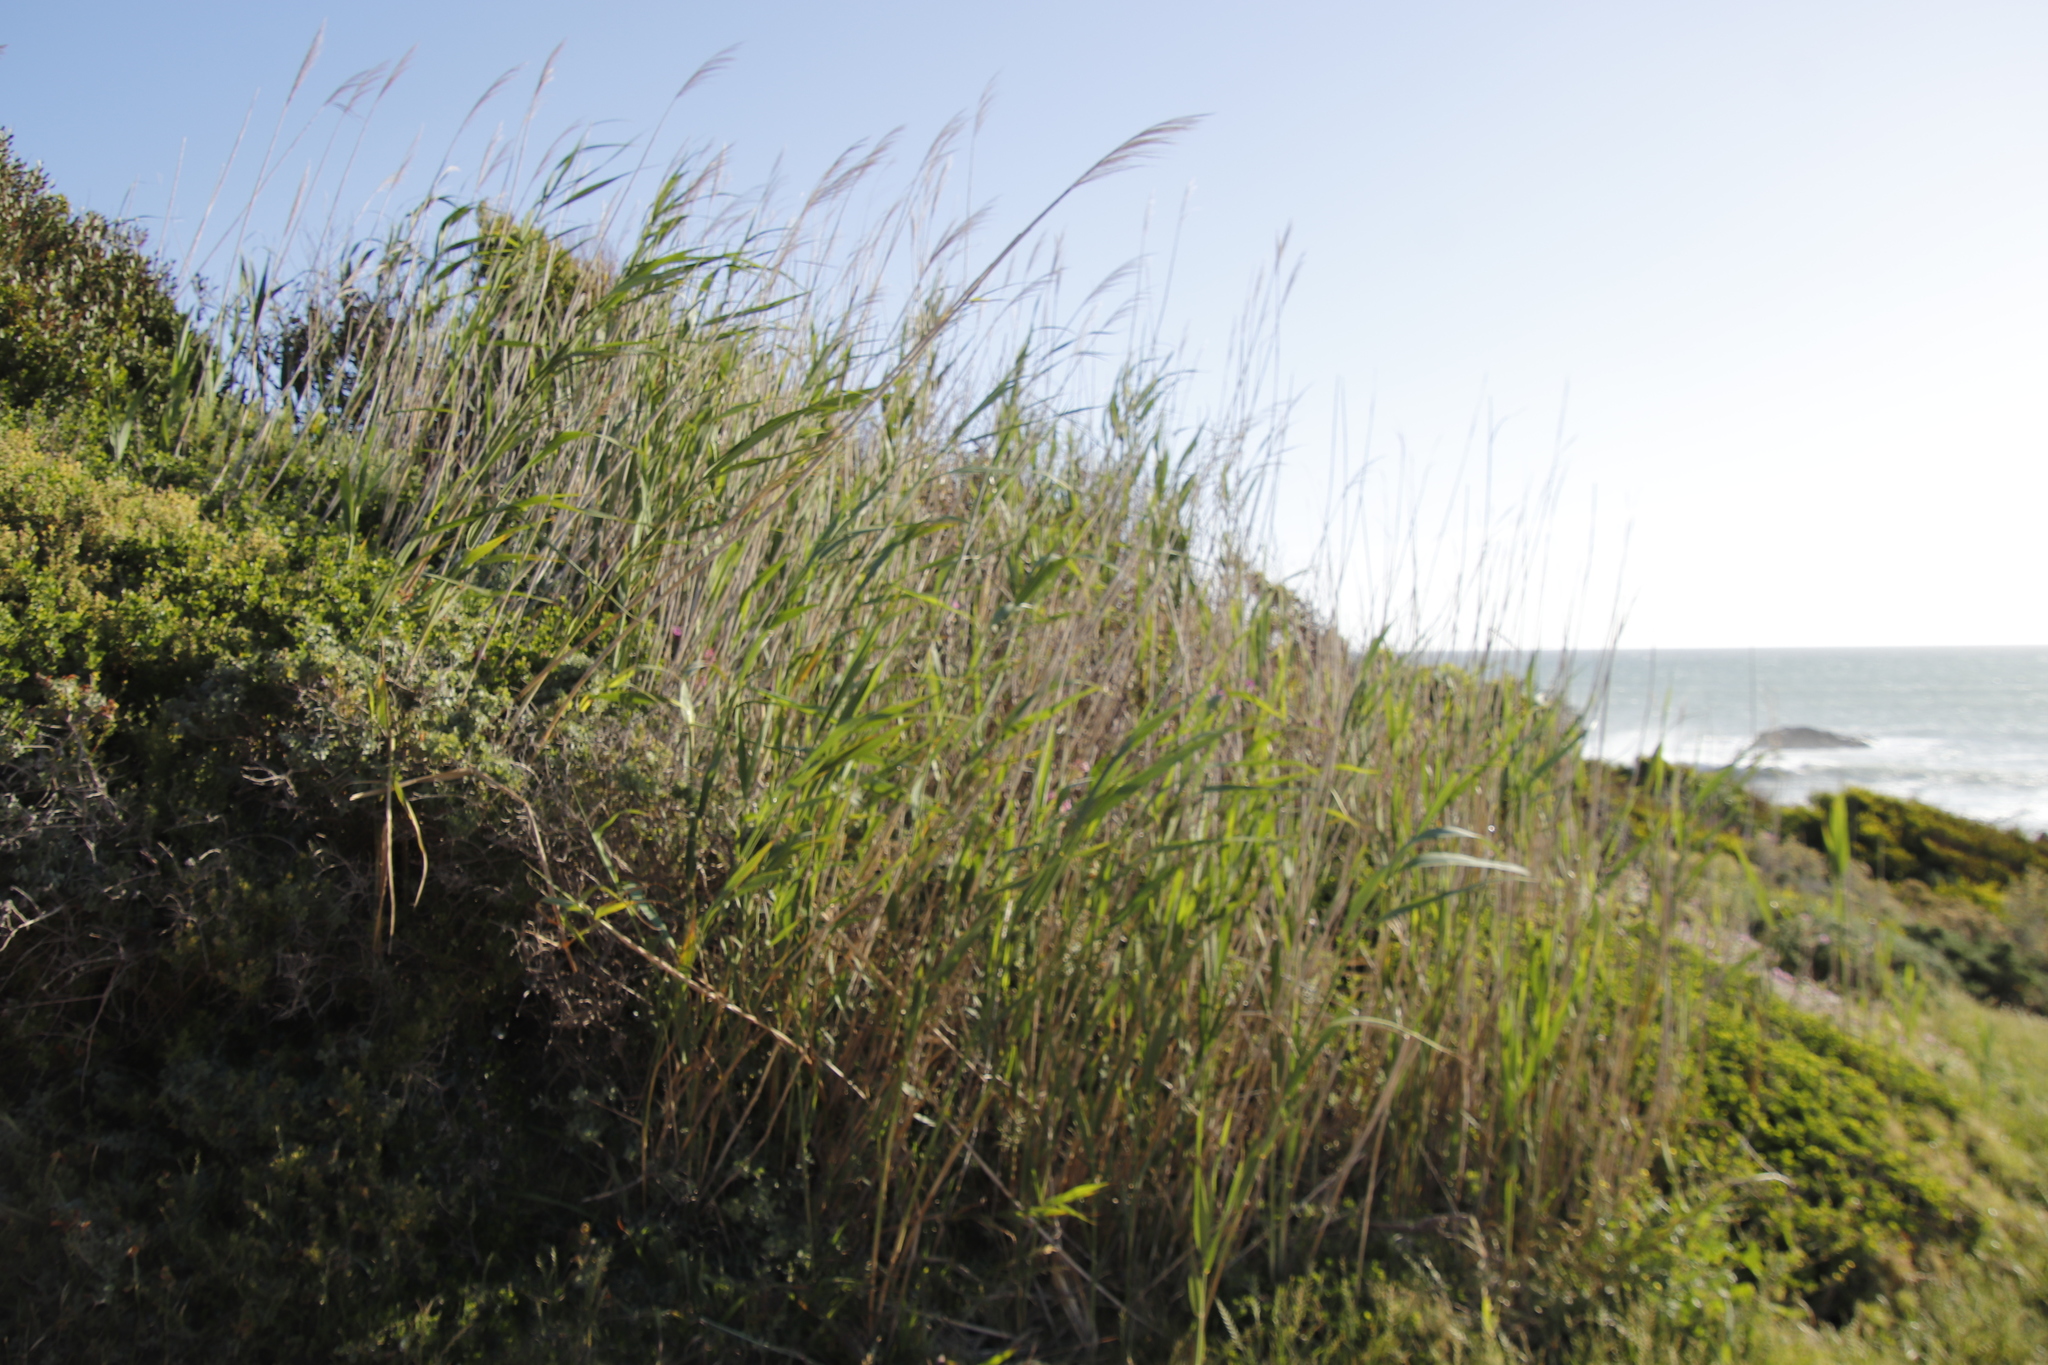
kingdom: Plantae
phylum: Tracheophyta
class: Liliopsida
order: Poales
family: Poaceae
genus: Phragmites
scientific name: Phragmites australis
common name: Common reed
